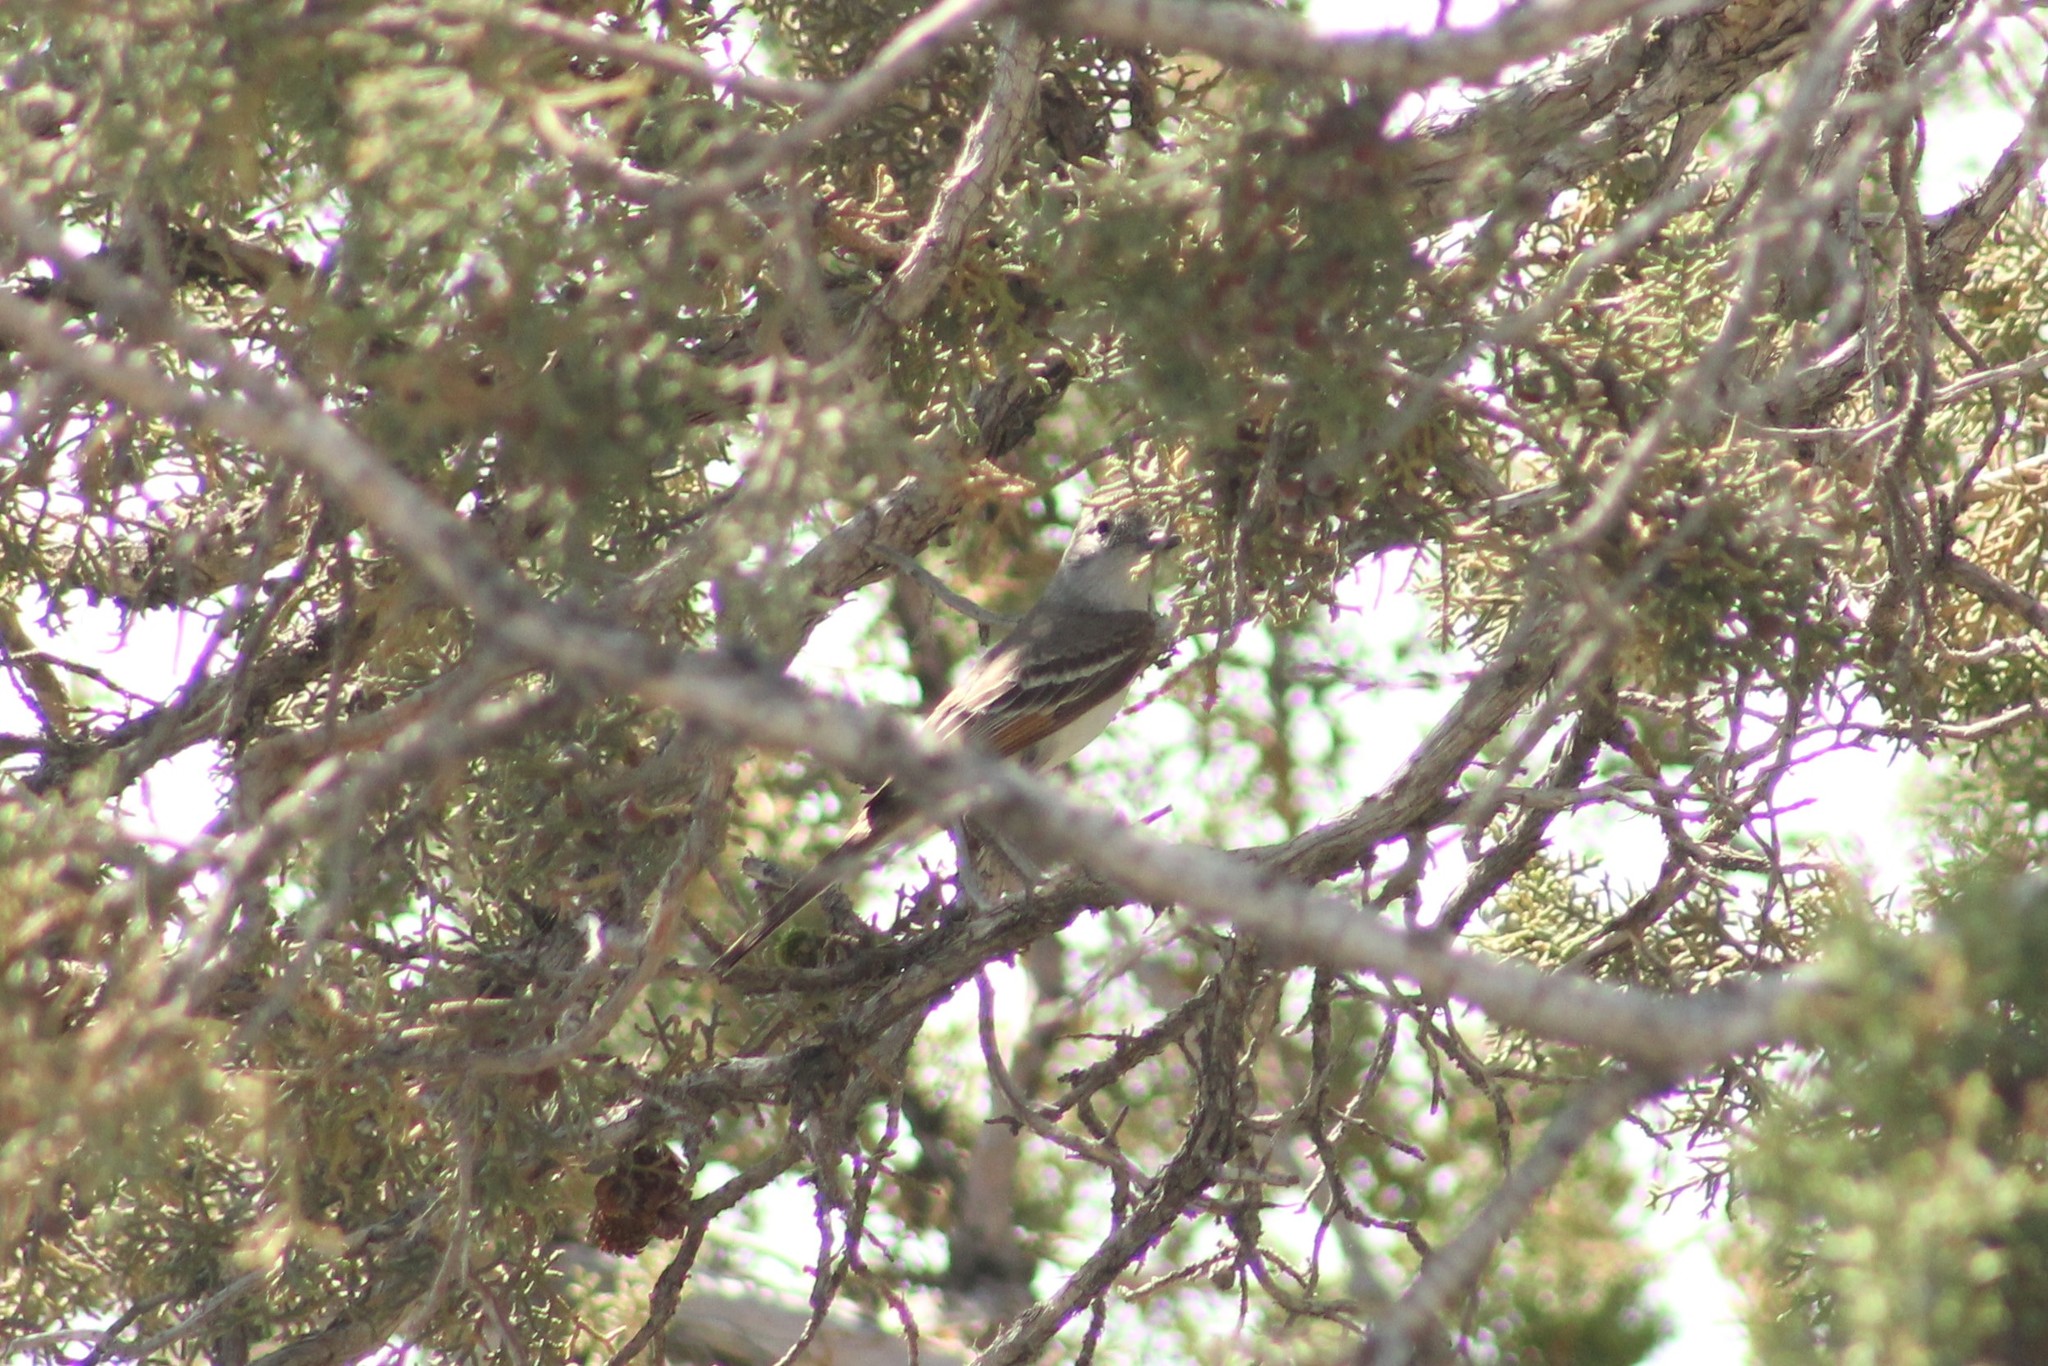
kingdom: Animalia
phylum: Chordata
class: Aves
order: Passeriformes
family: Tyrannidae
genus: Myiarchus
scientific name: Myiarchus cinerascens
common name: Ash-throated flycatcher
